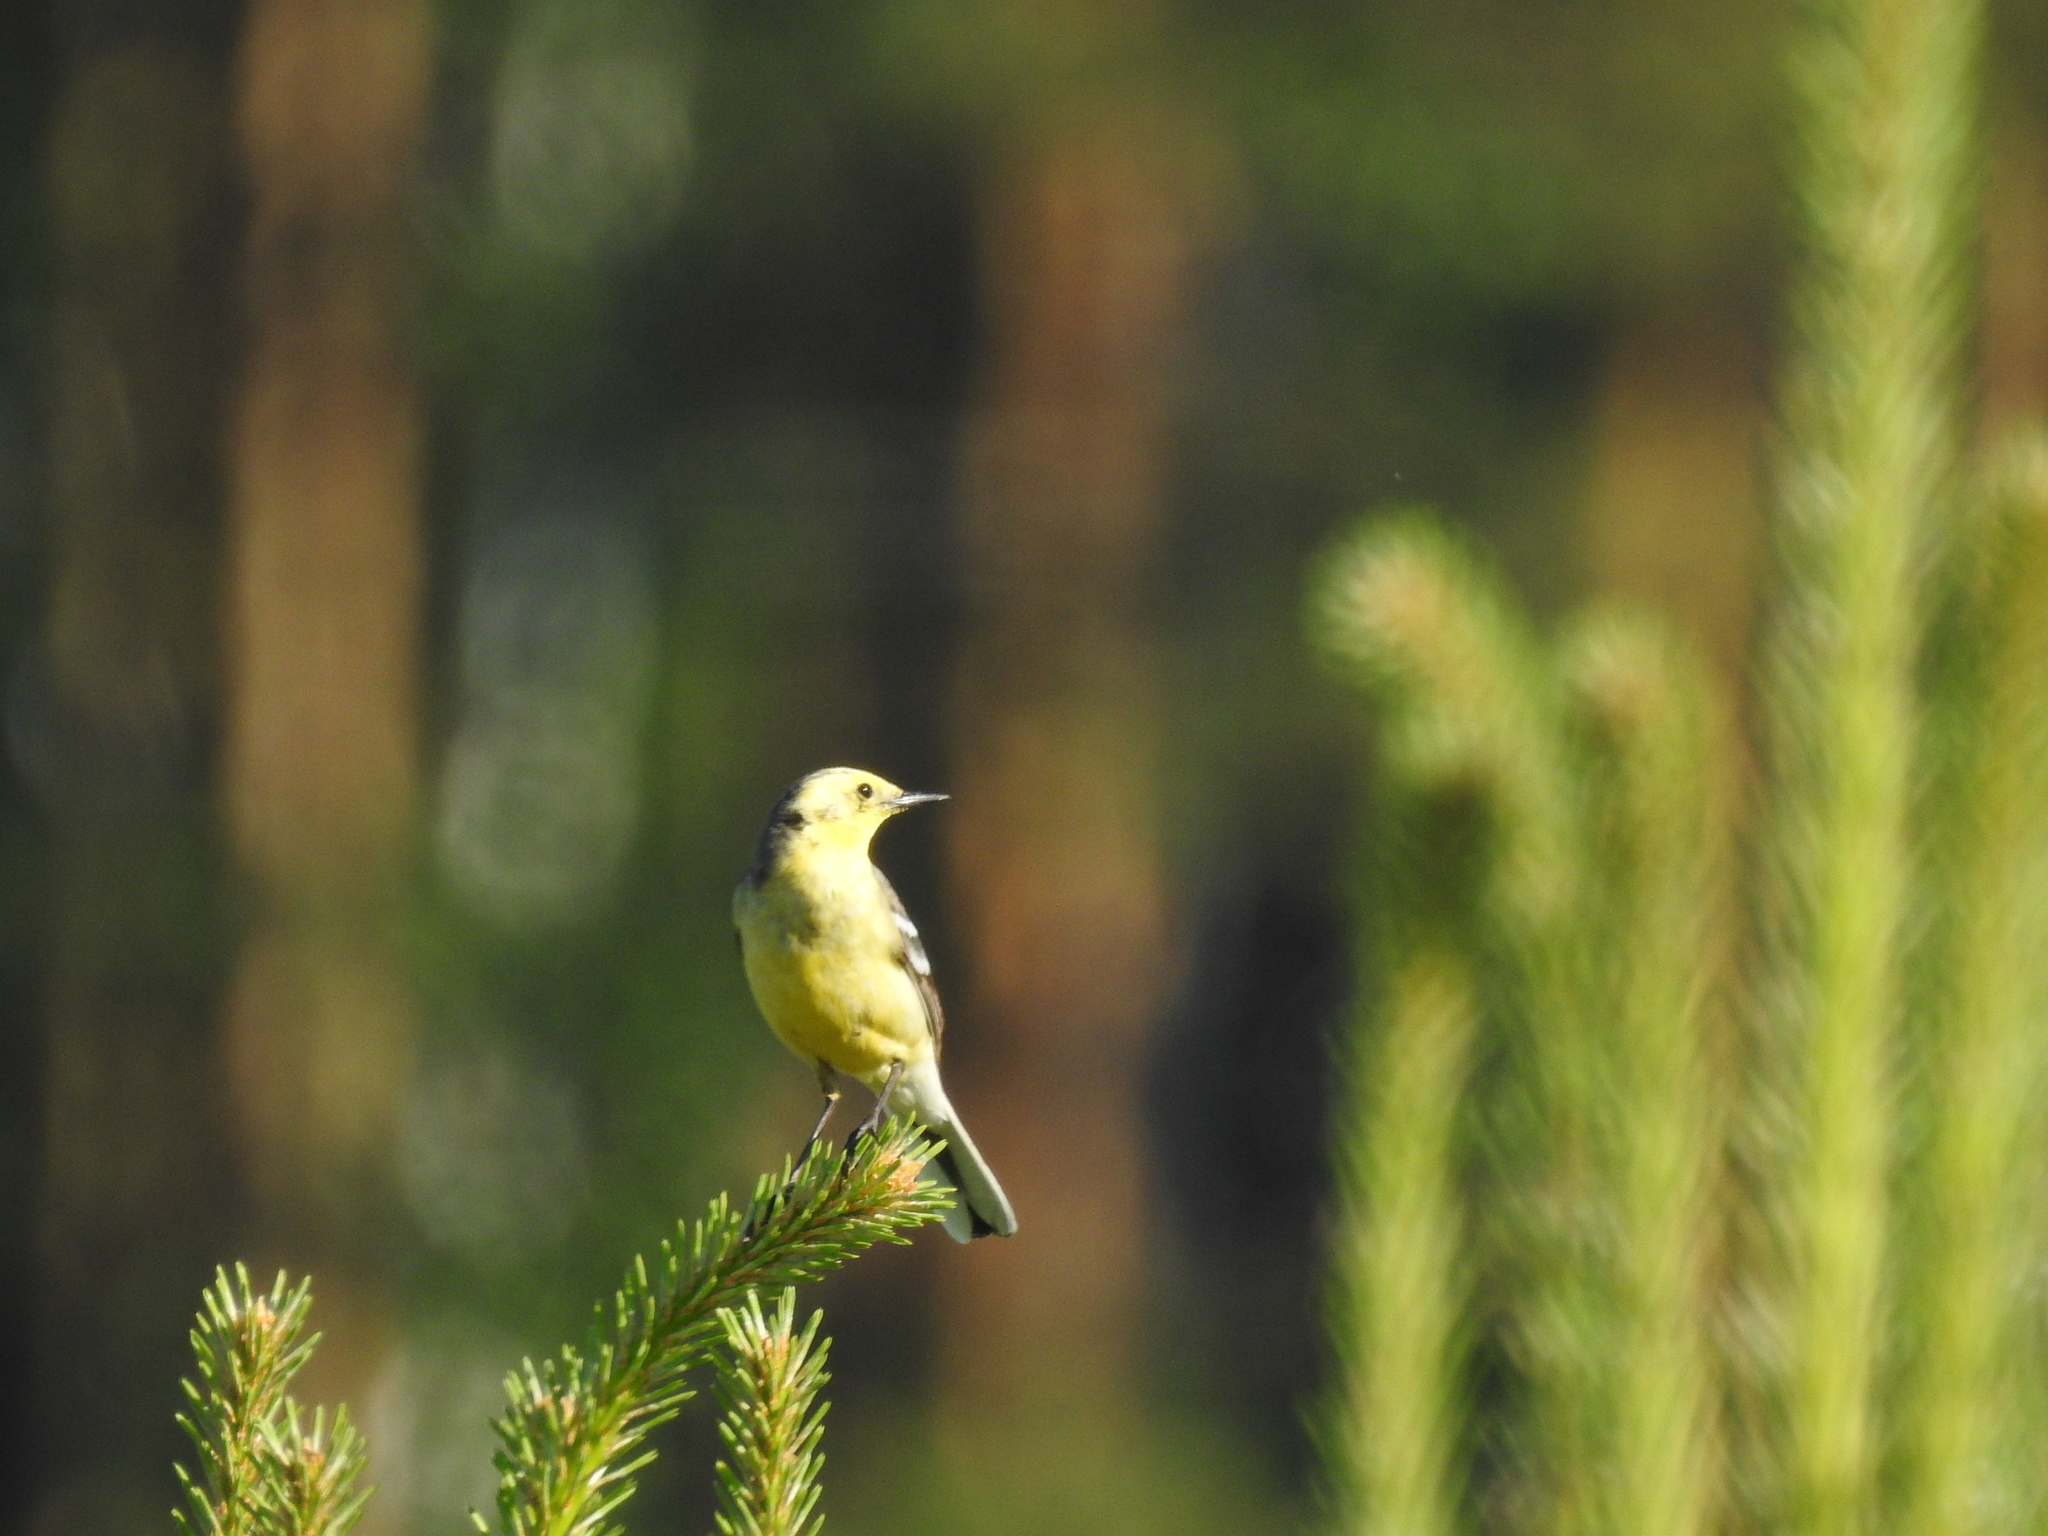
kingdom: Animalia
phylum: Chordata
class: Aves
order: Passeriformes
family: Motacillidae
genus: Motacilla
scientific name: Motacilla flava
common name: Western yellow wagtail
